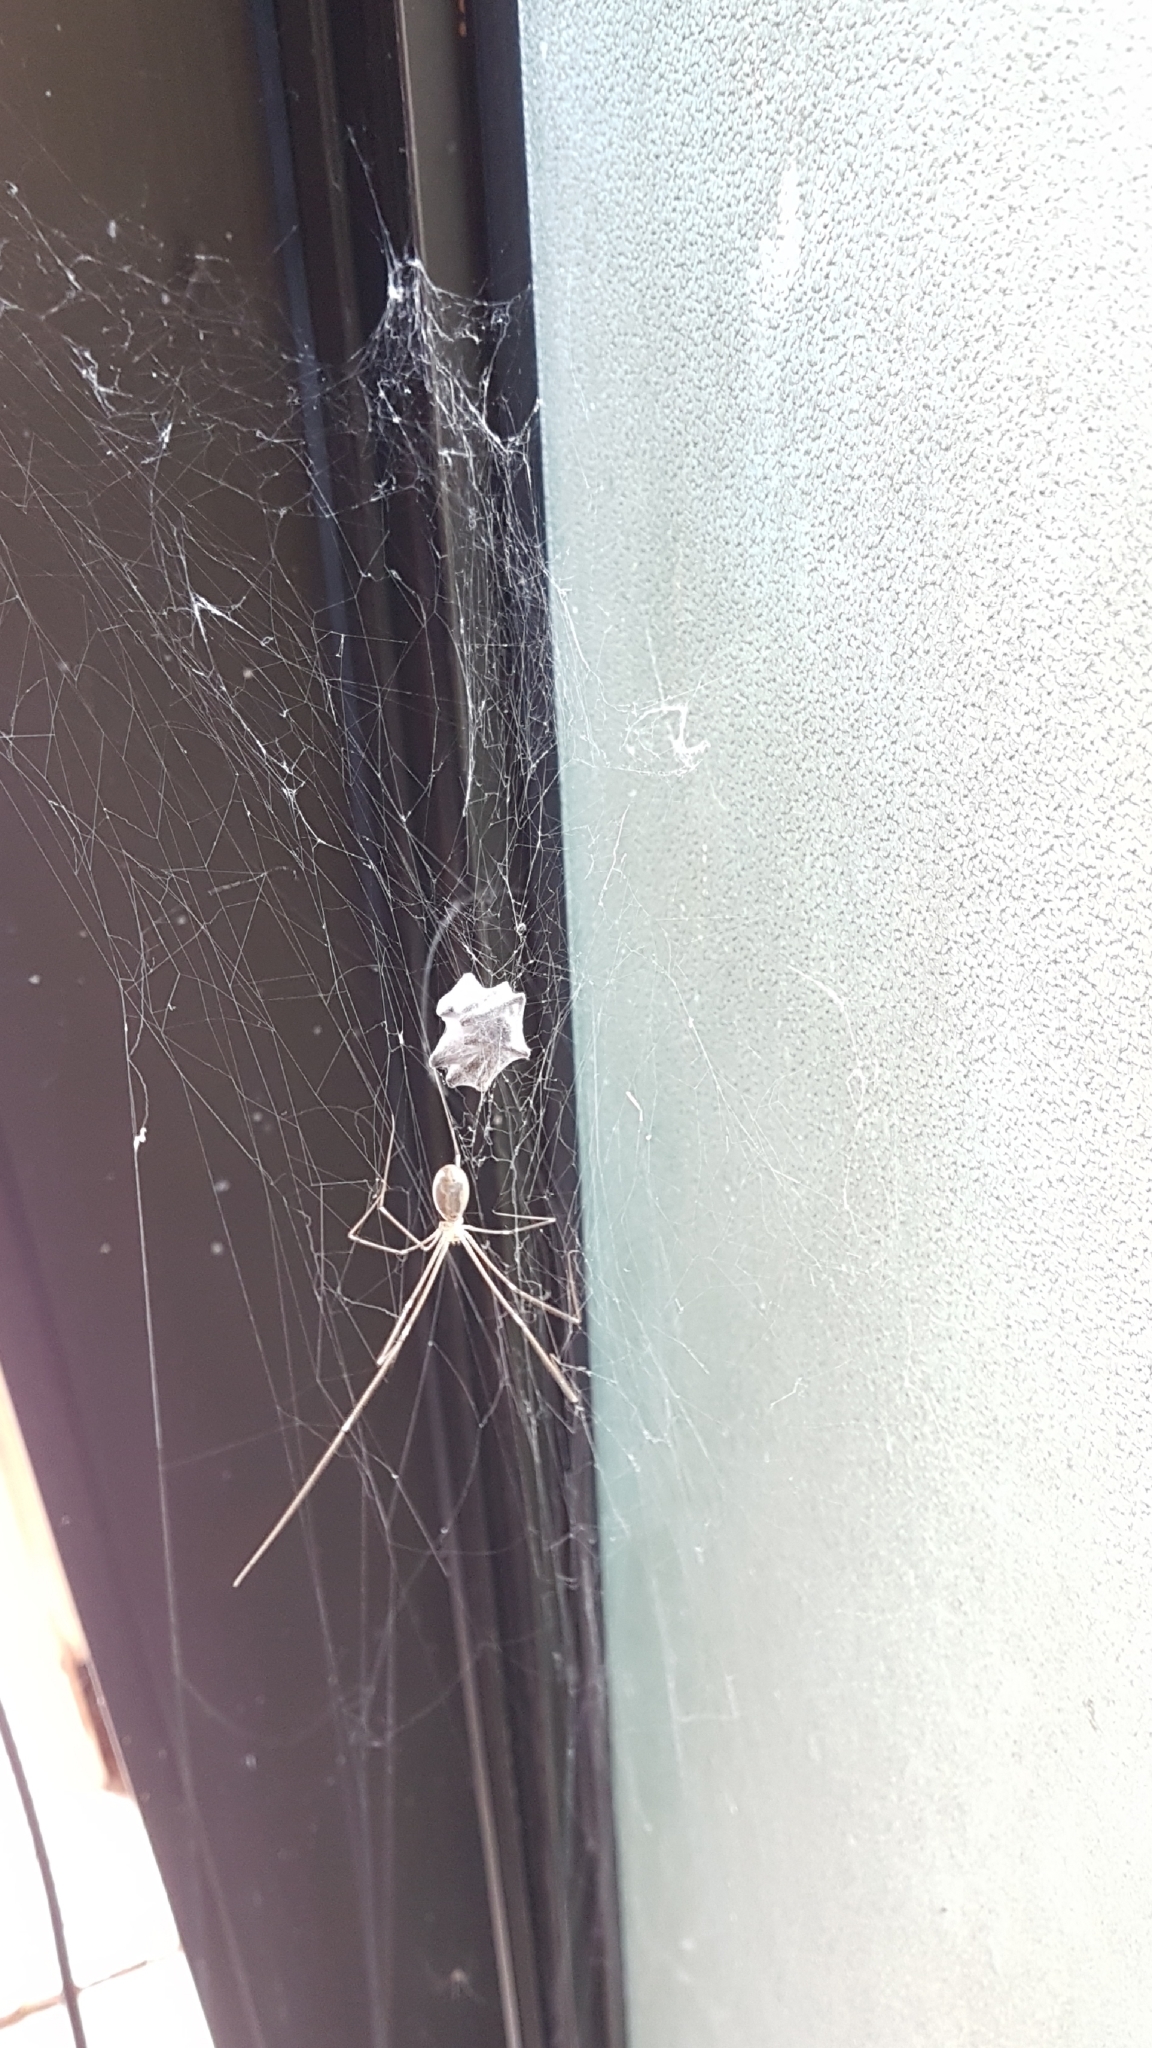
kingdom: Animalia
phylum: Arthropoda
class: Arachnida
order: Araneae
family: Pholcidae
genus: Pholcus
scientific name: Pholcus phalangioides
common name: Longbodied cellar spider
